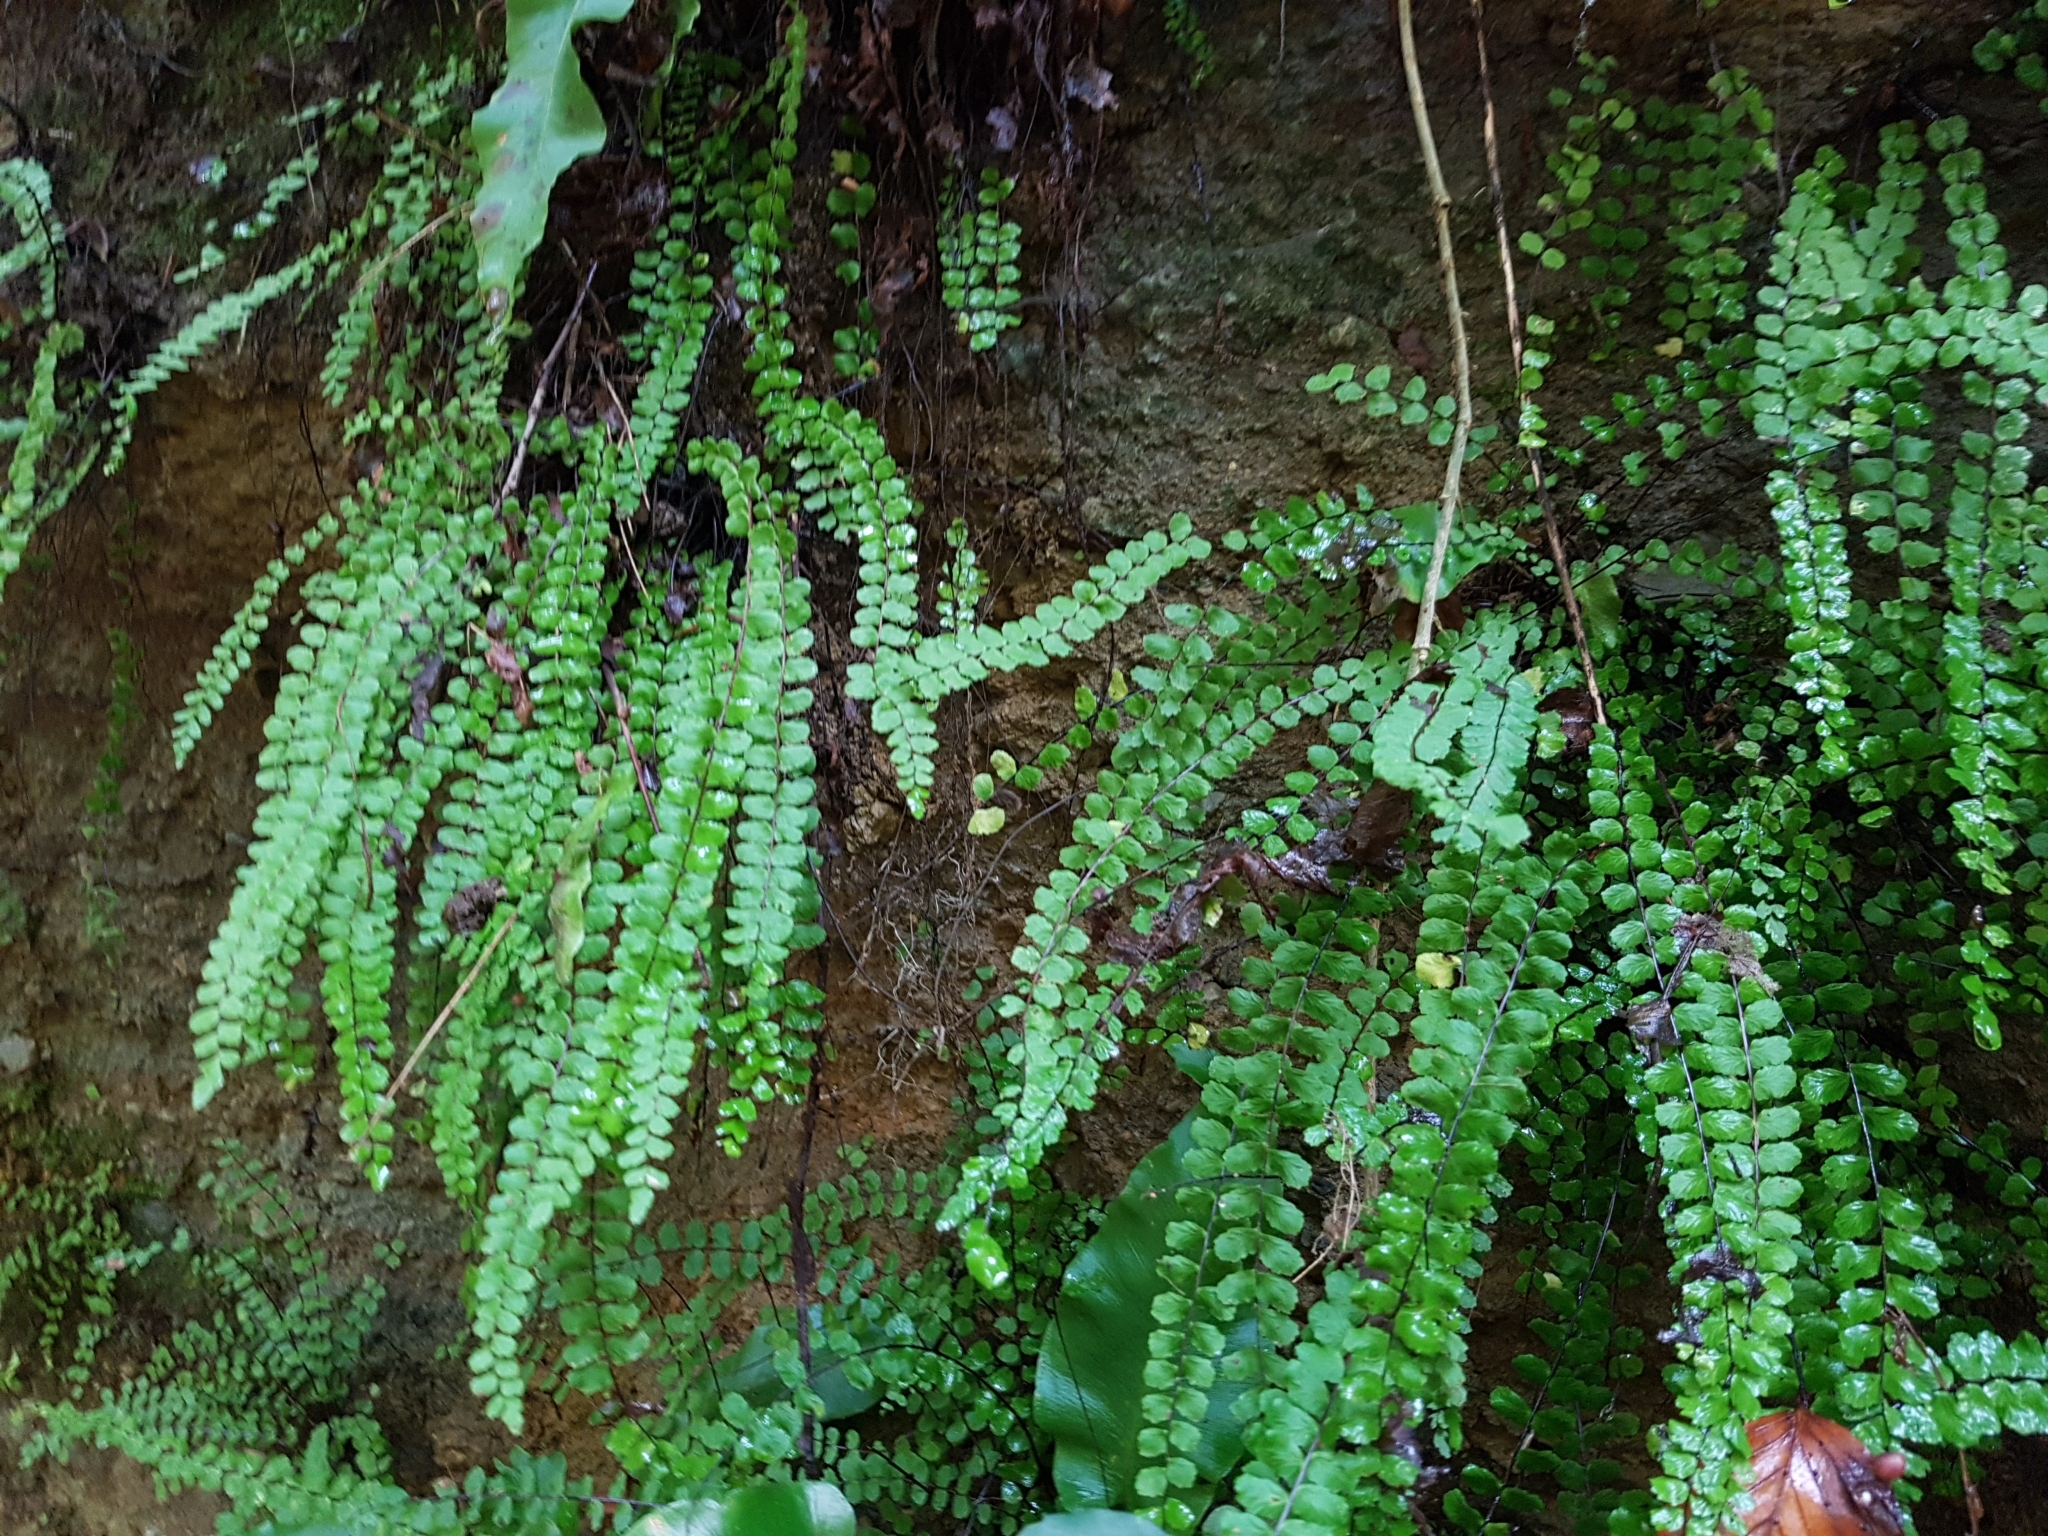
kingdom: Plantae
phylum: Tracheophyta
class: Polypodiopsida
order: Polypodiales
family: Aspleniaceae
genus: Asplenium
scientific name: Asplenium trichomanes
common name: Maidenhair spleenwort
